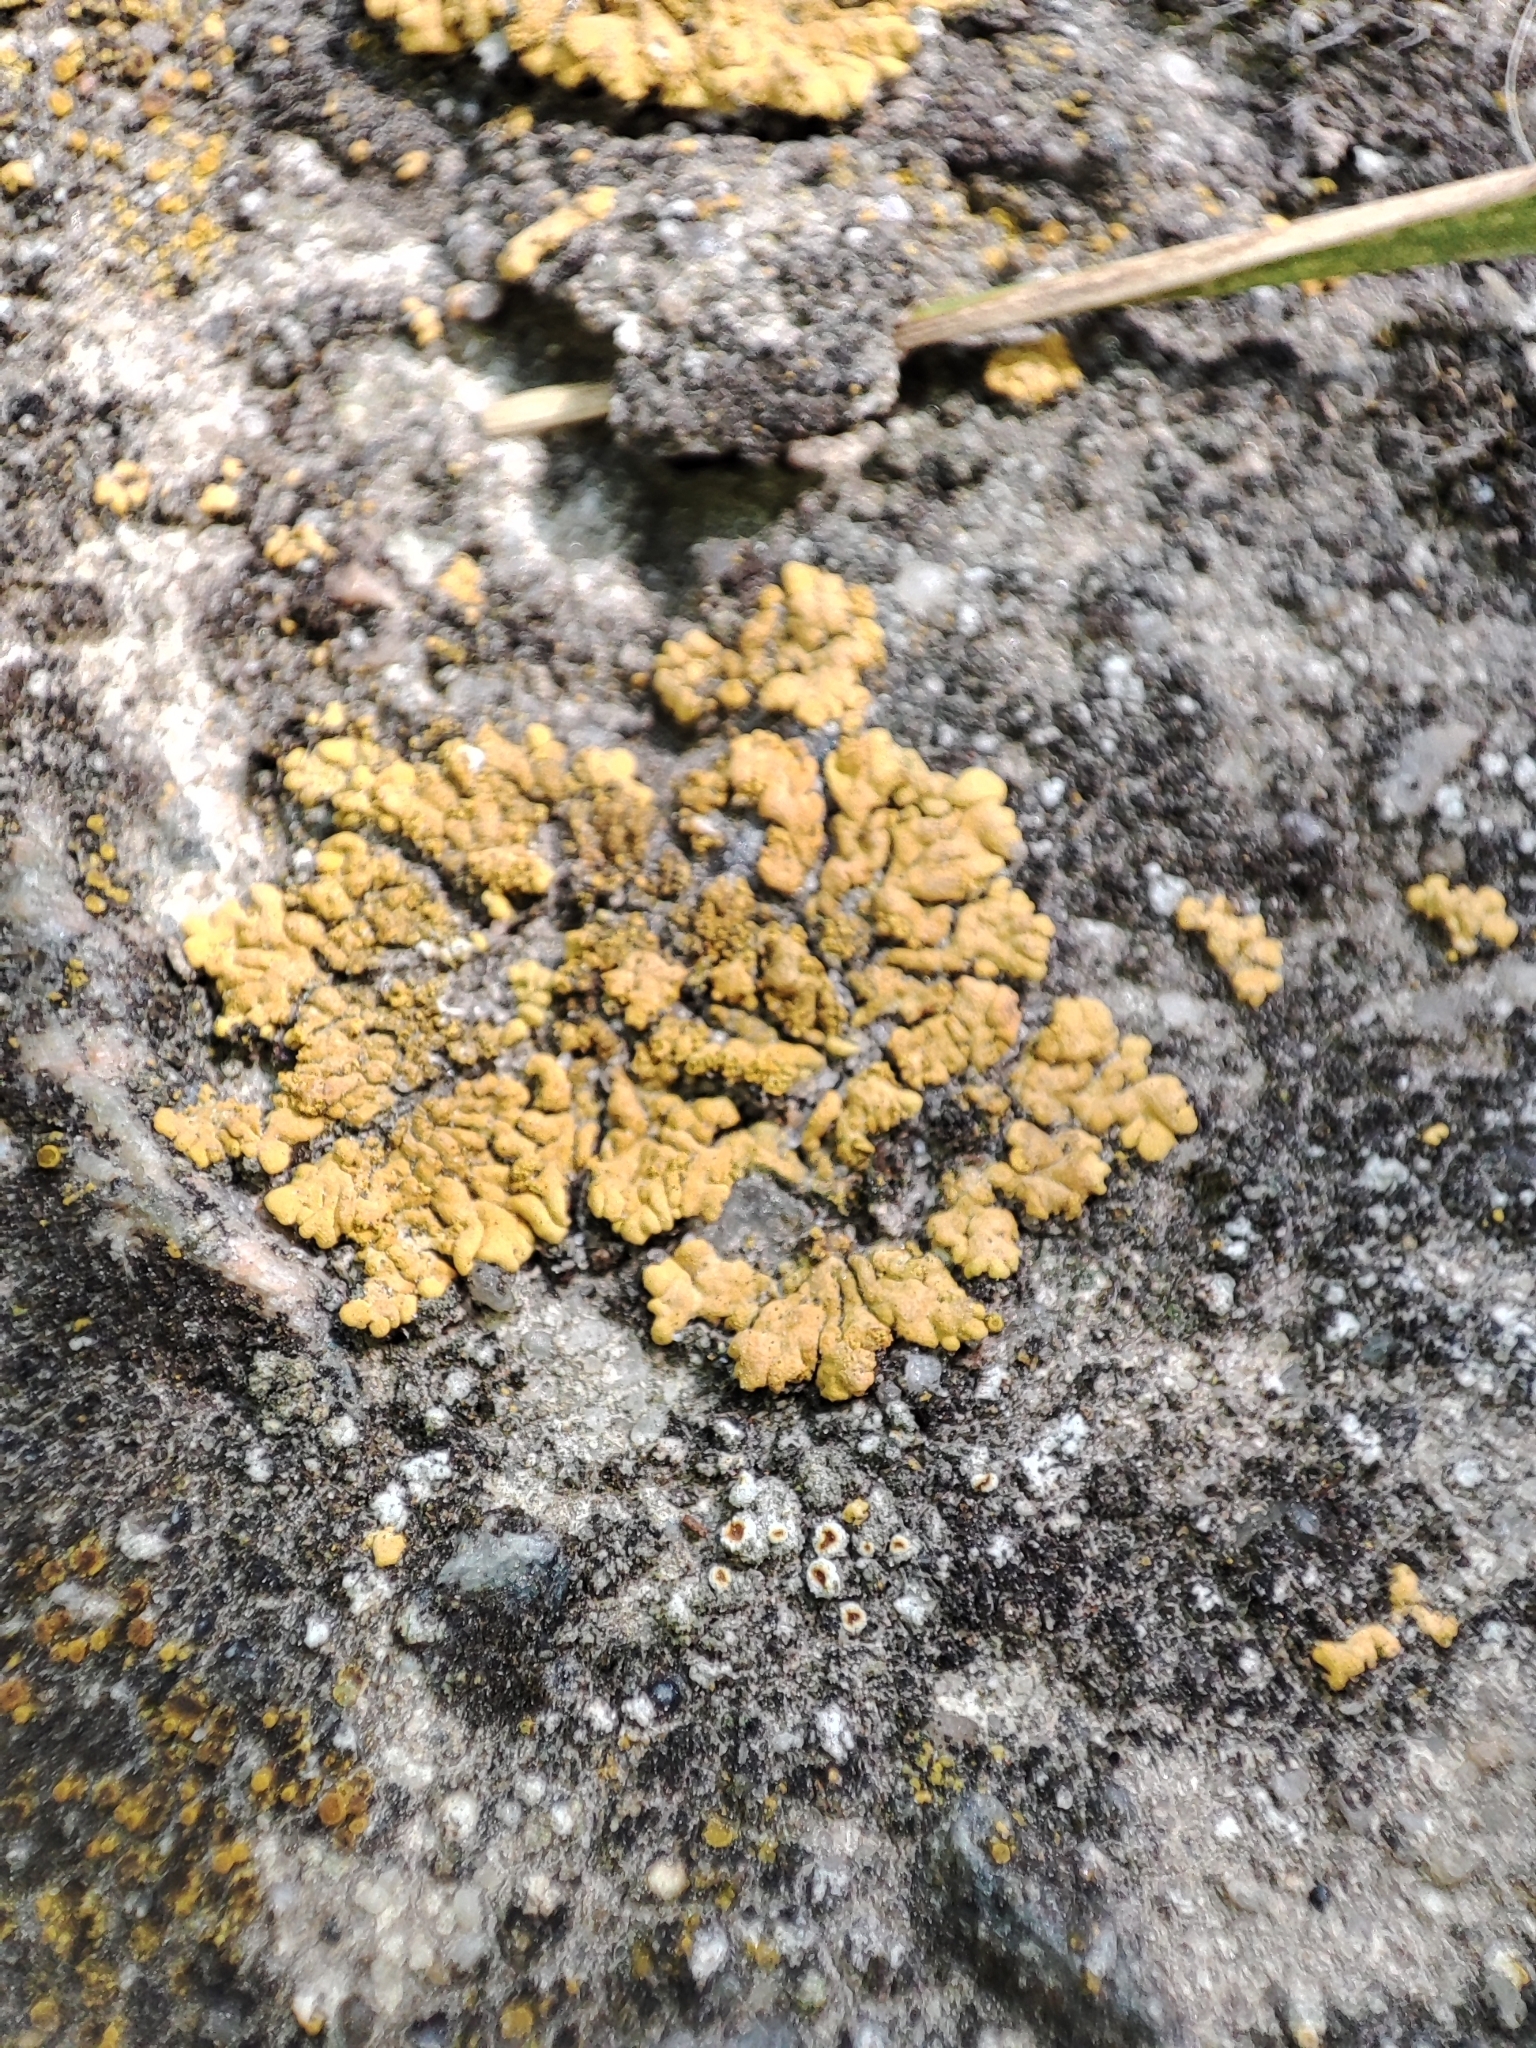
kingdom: Fungi
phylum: Ascomycota
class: Lecanoromycetes
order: Teloschistales
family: Teloschistaceae
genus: Calogaya
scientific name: Calogaya decipiens
